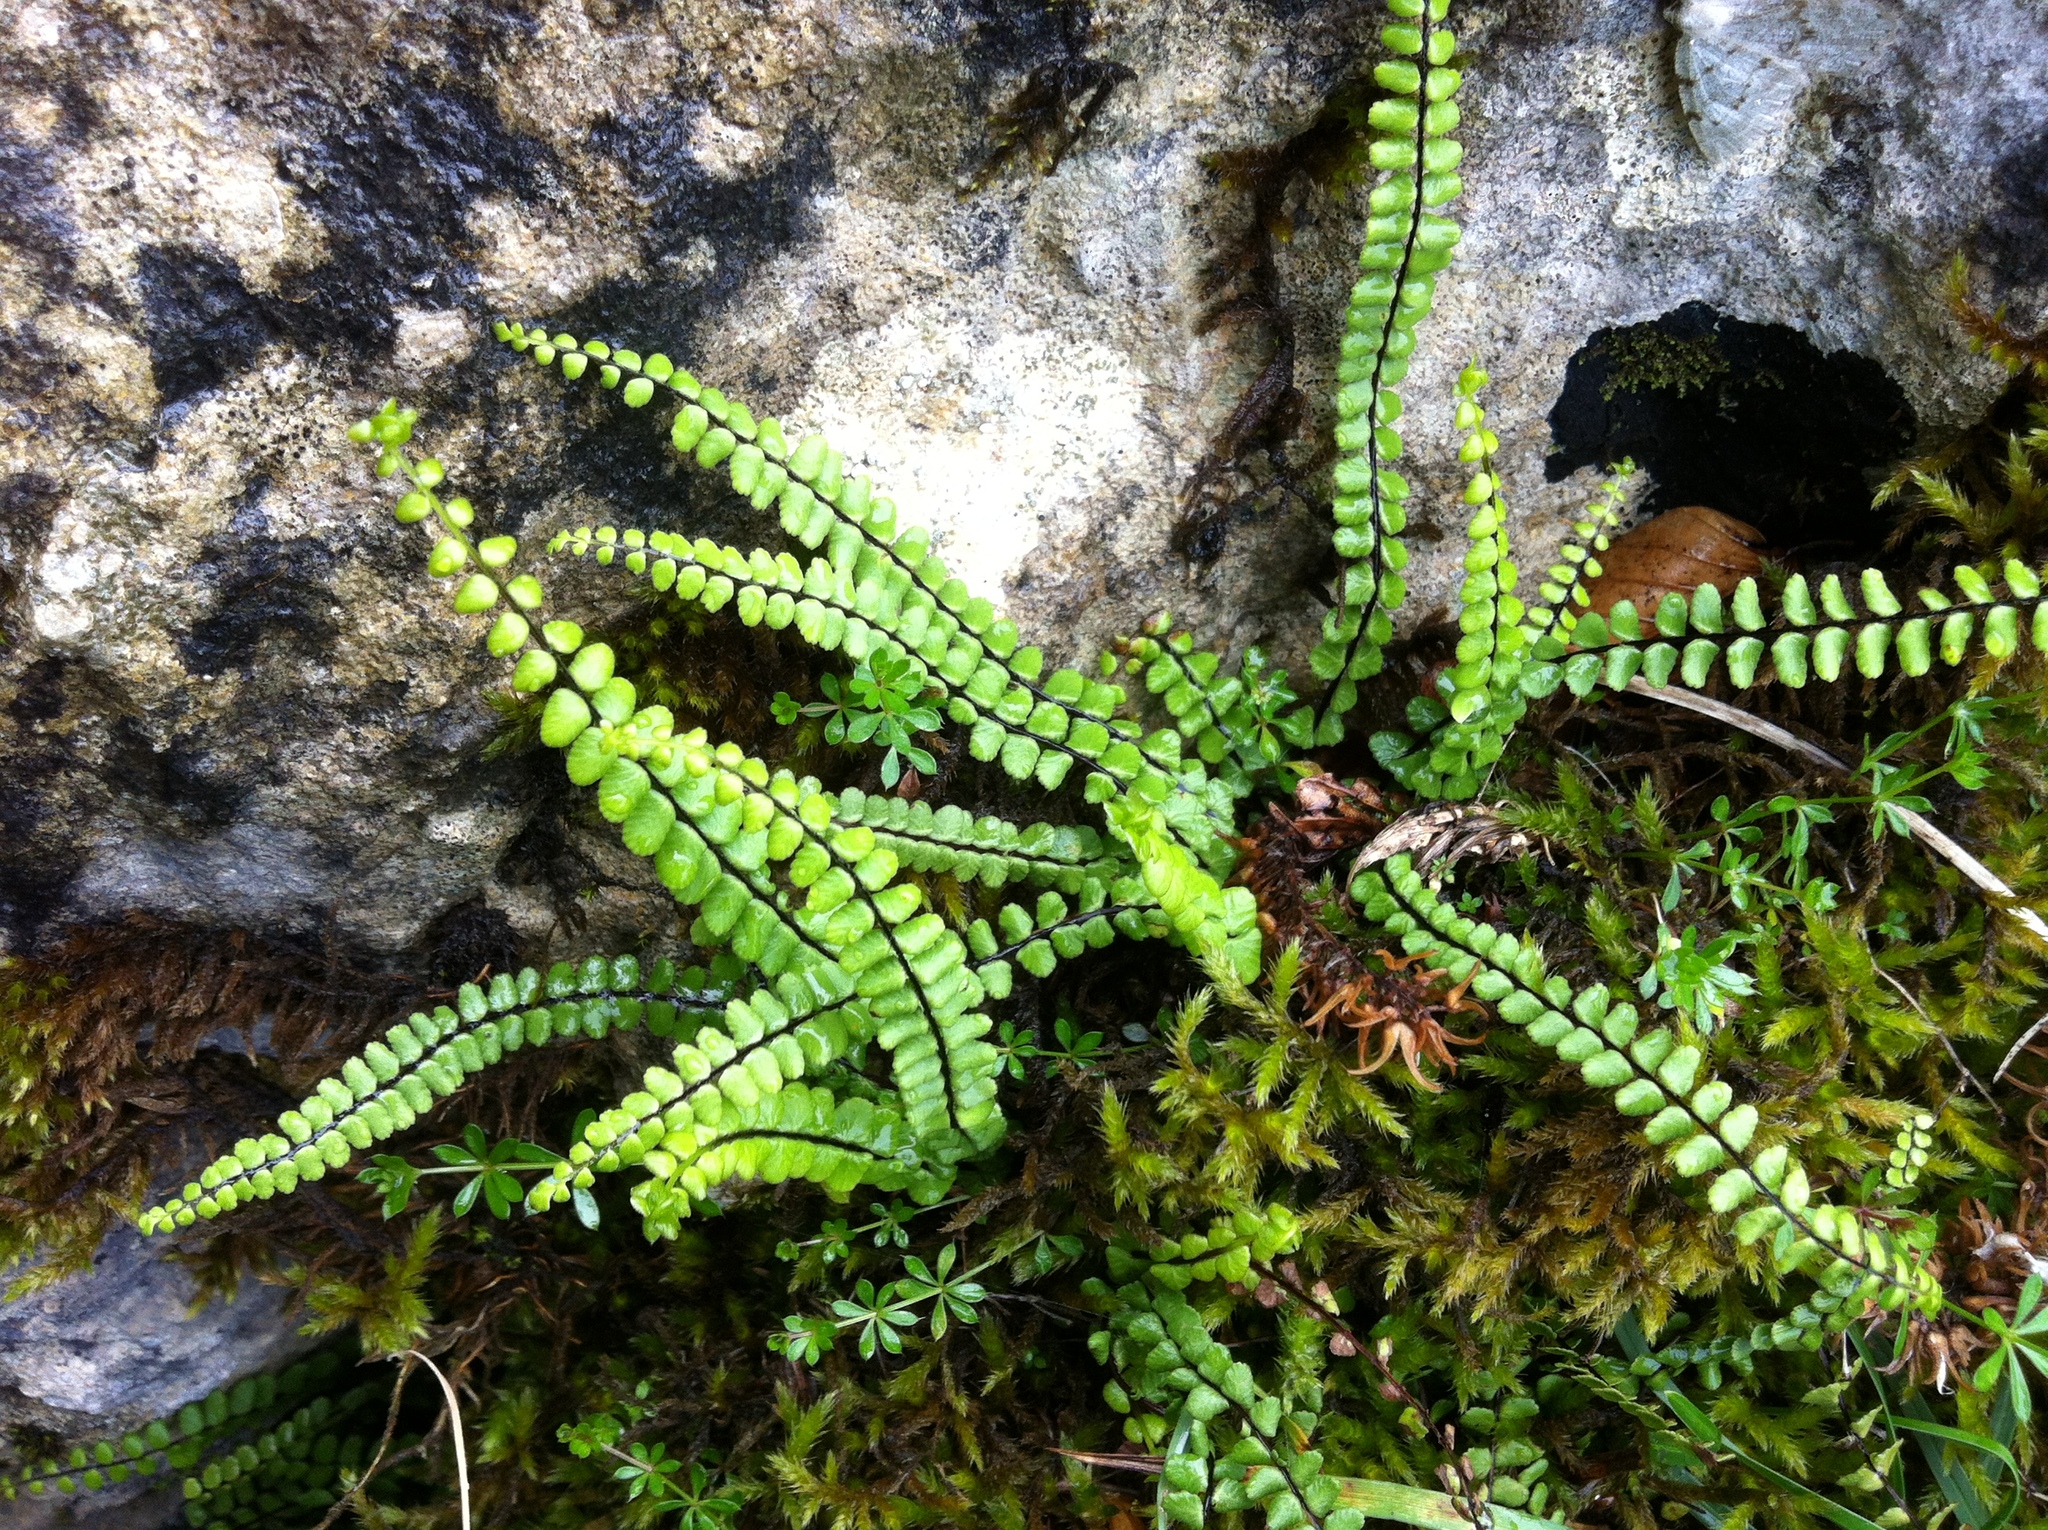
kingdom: Plantae
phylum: Tracheophyta
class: Polypodiopsida
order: Polypodiales
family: Aspleniaceae
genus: Asplenium
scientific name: Asplenium trichomanes
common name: Maidenhair spleenwort
